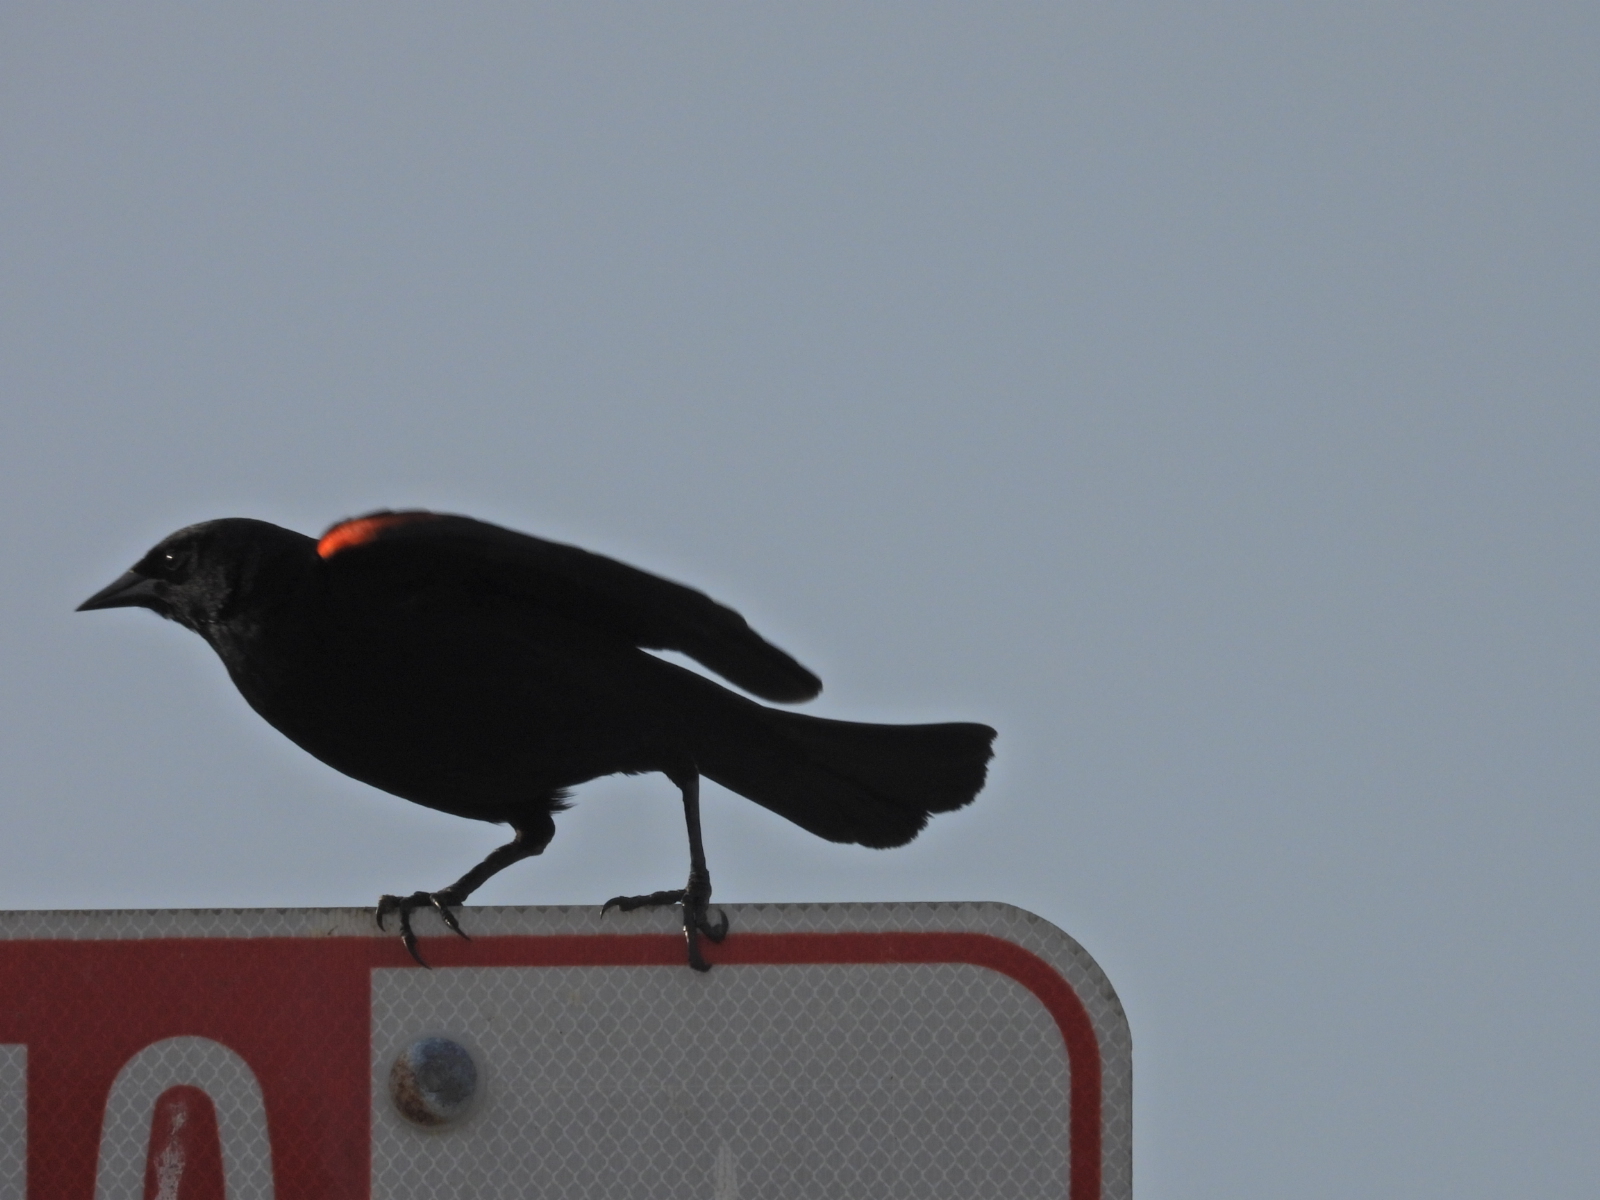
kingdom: Animalia
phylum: Chordata
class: Aves
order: Passeriformes
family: Icteridae
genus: Agelaius
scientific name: Agelaius phoeniceus
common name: Red-winged blackbird
